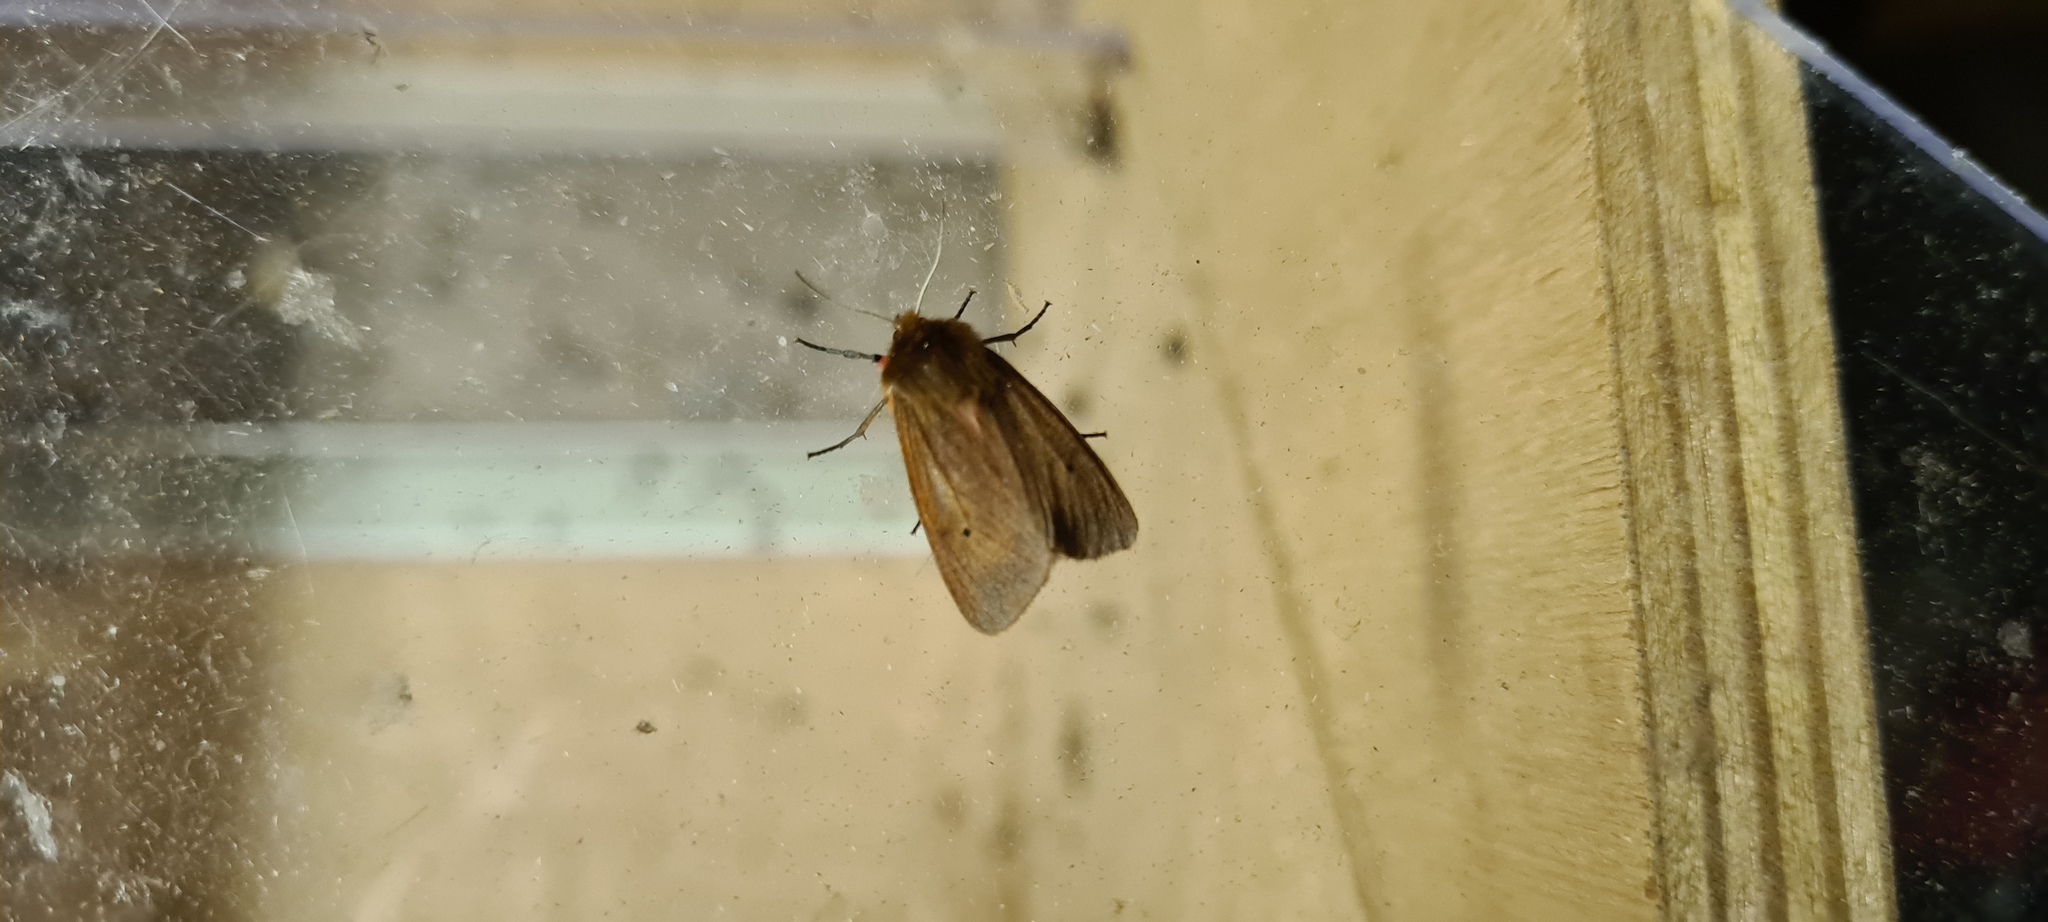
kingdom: Animalia
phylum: Arthropoda
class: Insecta
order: Lepidoptera
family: Erebidae
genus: Phragmatobia
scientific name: Phragmatobia fuliginosa
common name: Ruby tiger
